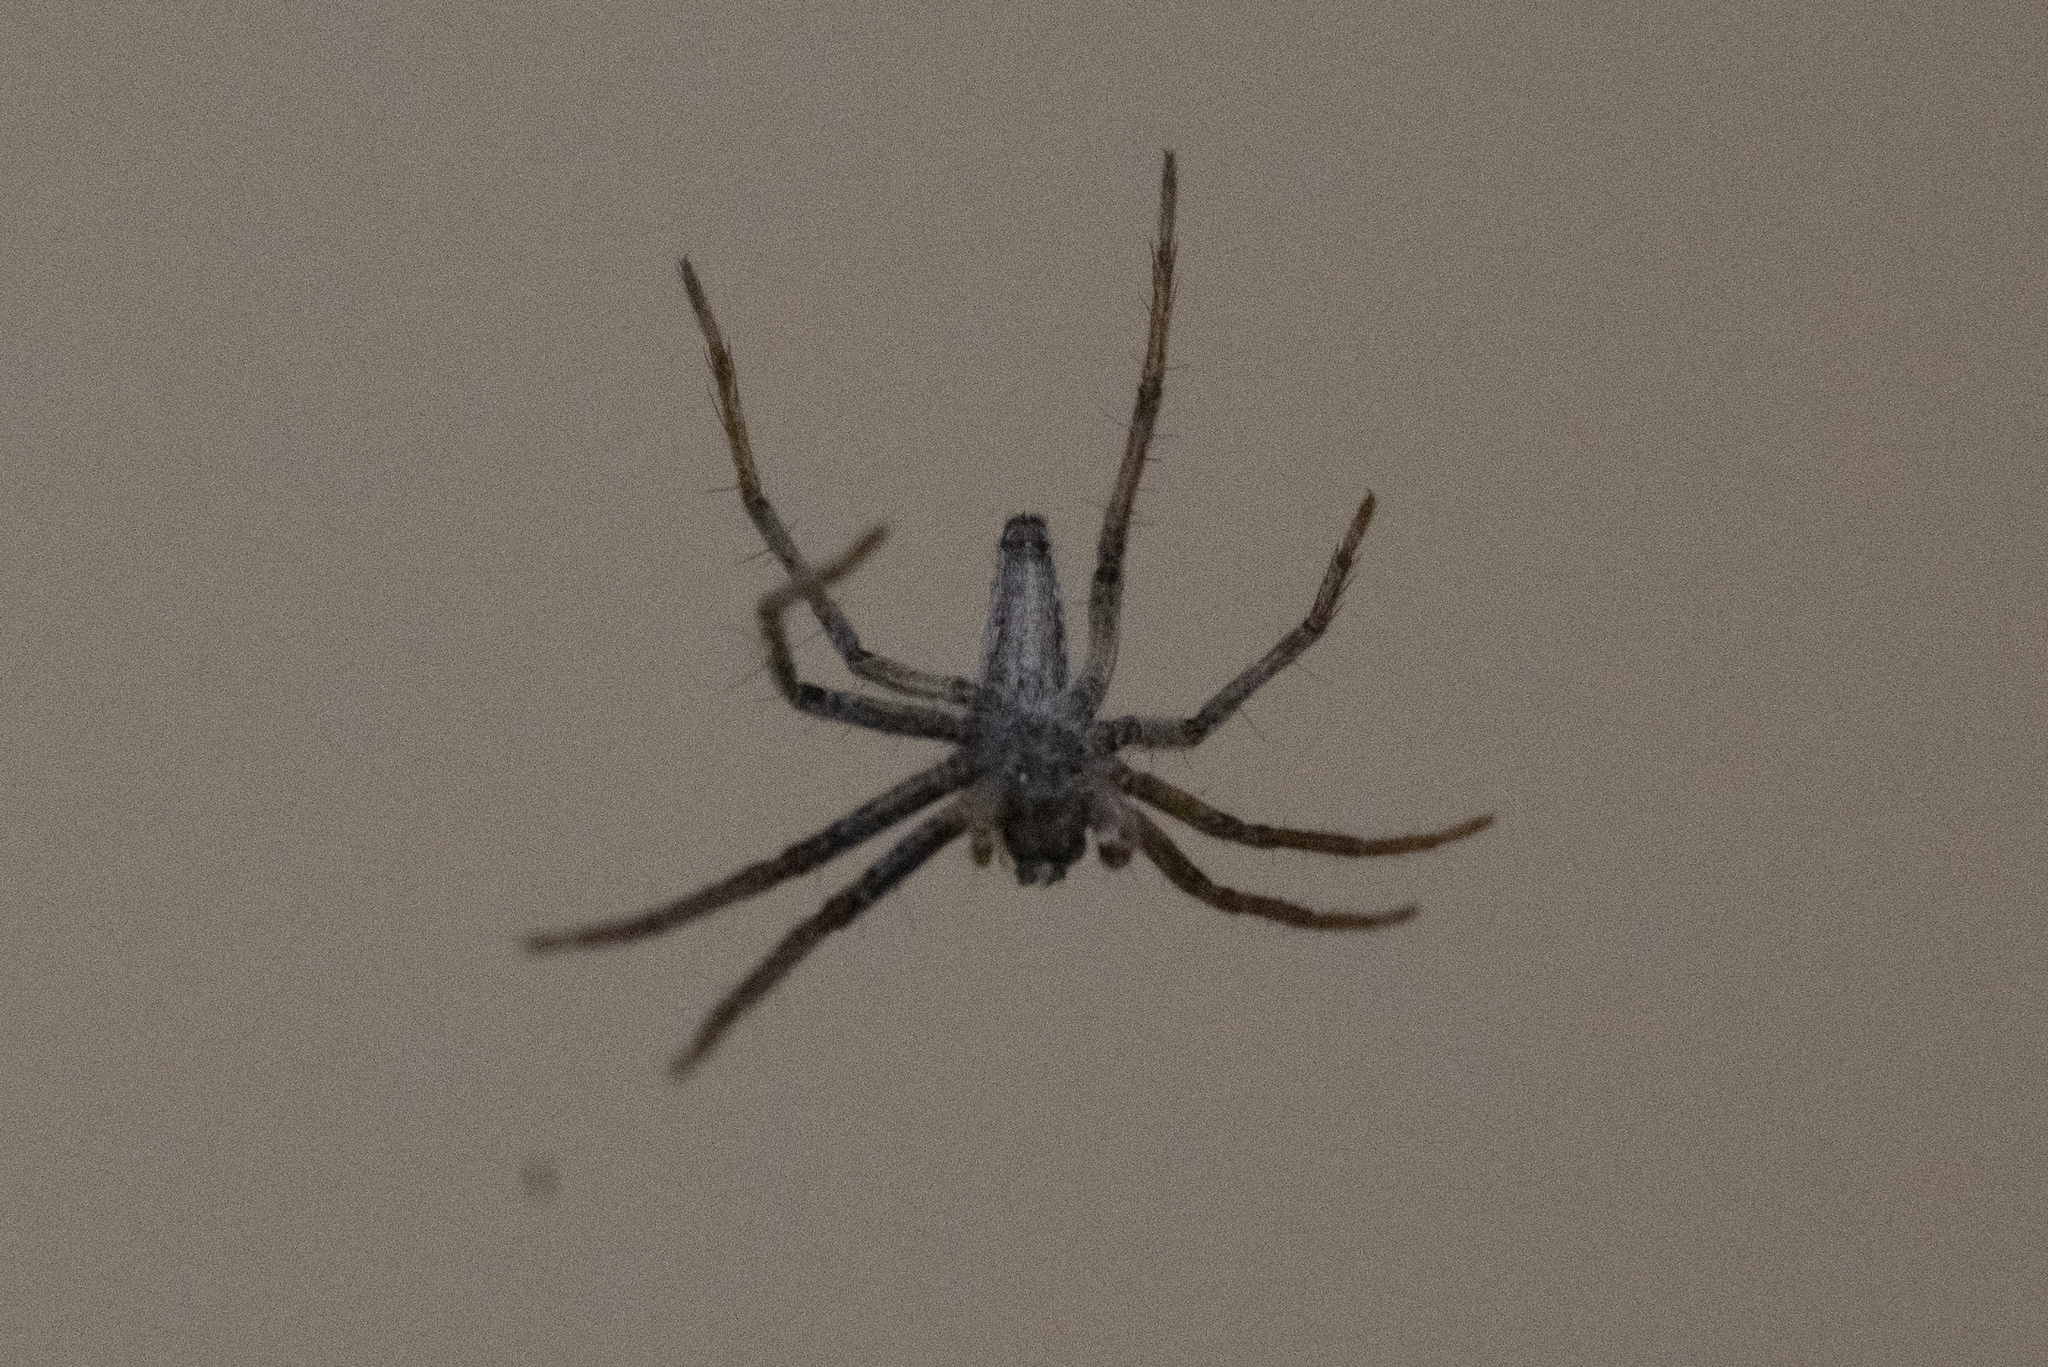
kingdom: Animalia
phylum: Arthropoda
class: Arachnida
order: Araneae
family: Pisauridae
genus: Pisaura
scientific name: Pisaura
